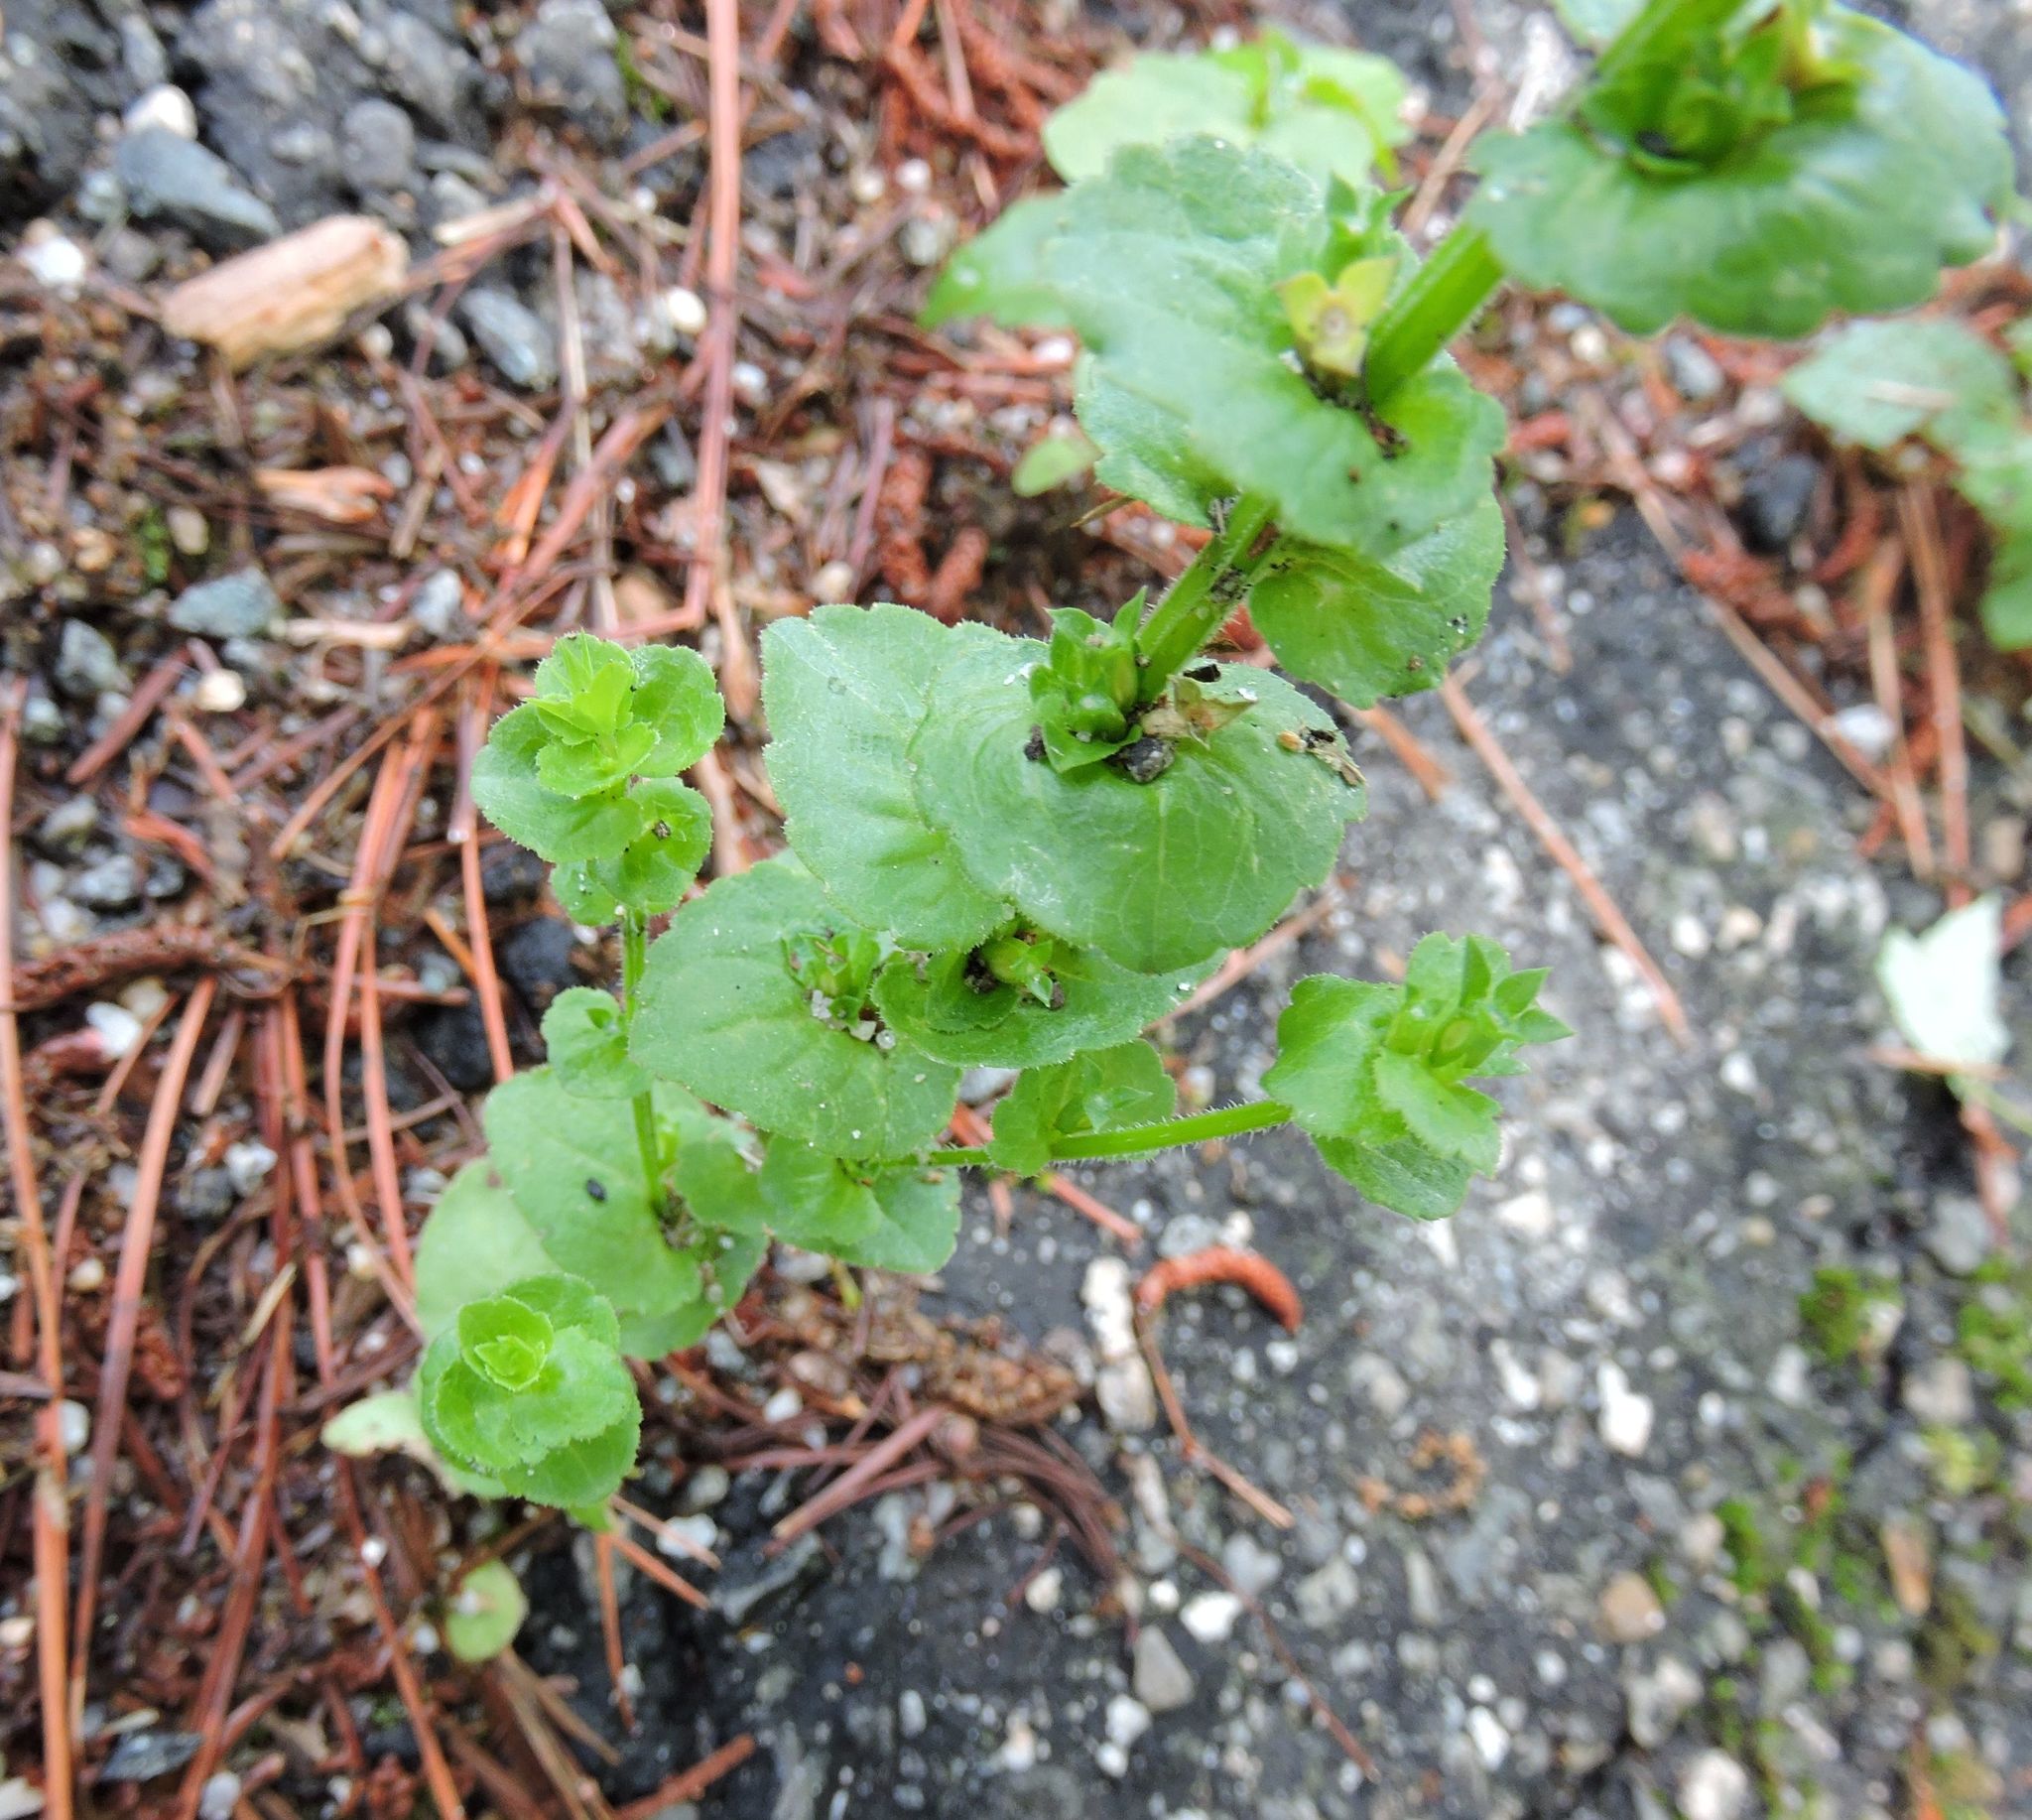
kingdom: Plantae
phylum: Tracheophyta
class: Magnoliopsida
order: Asterales
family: Campanulaceae
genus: Triodanis
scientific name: Triodanis perfoliata
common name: Clasping venus' looking-glass
